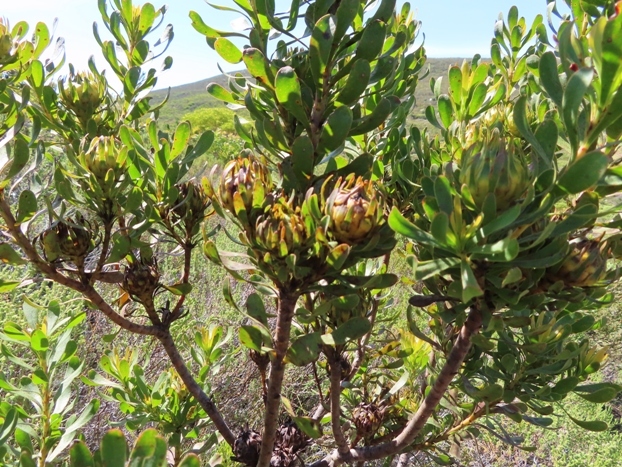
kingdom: Plantae
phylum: Tracheophyta
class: Magnoliopsida
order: Proteales
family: Proteaceae
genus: Aulax
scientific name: Aulax umbellata
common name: Broad-leaf featherbush
